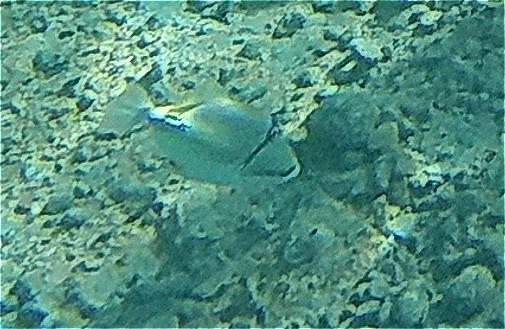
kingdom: Animalia
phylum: Chordata
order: Tetraodontiformes
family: Balistidae
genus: Rhinecanthus
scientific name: Rhinecanthus assasi
